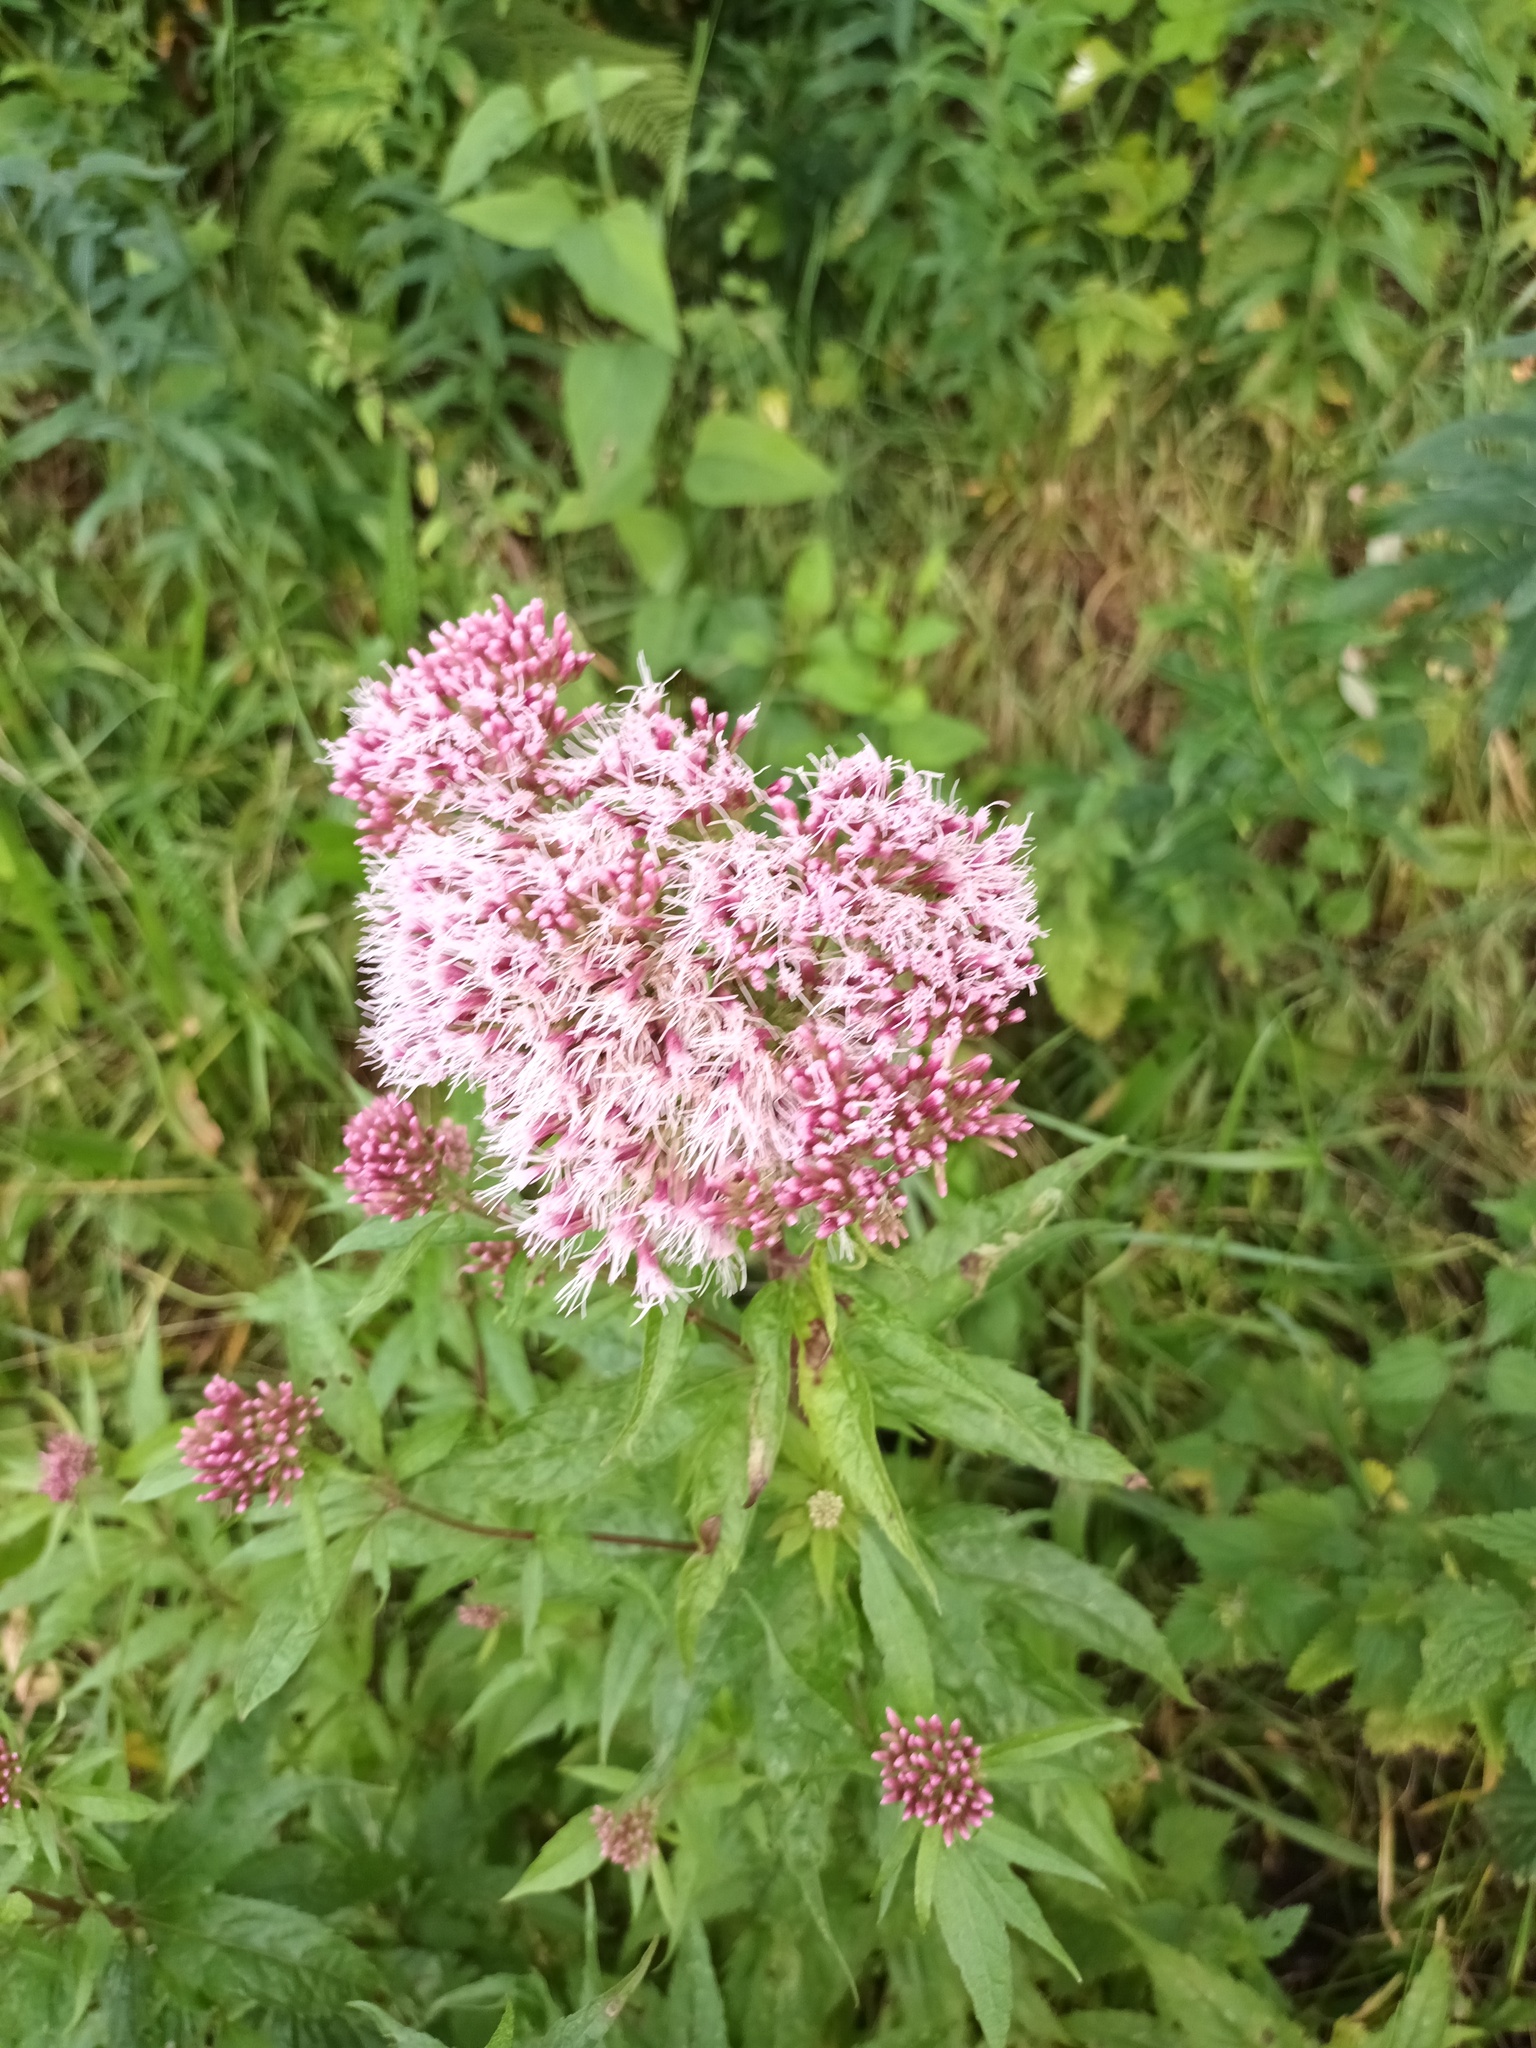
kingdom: Plantae
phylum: Tracheophyta
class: Magnoliopsida
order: Asterales
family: Asteraceae
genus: Eupatorium
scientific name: Eupatorium cannabinum
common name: Hemp-agrimony
